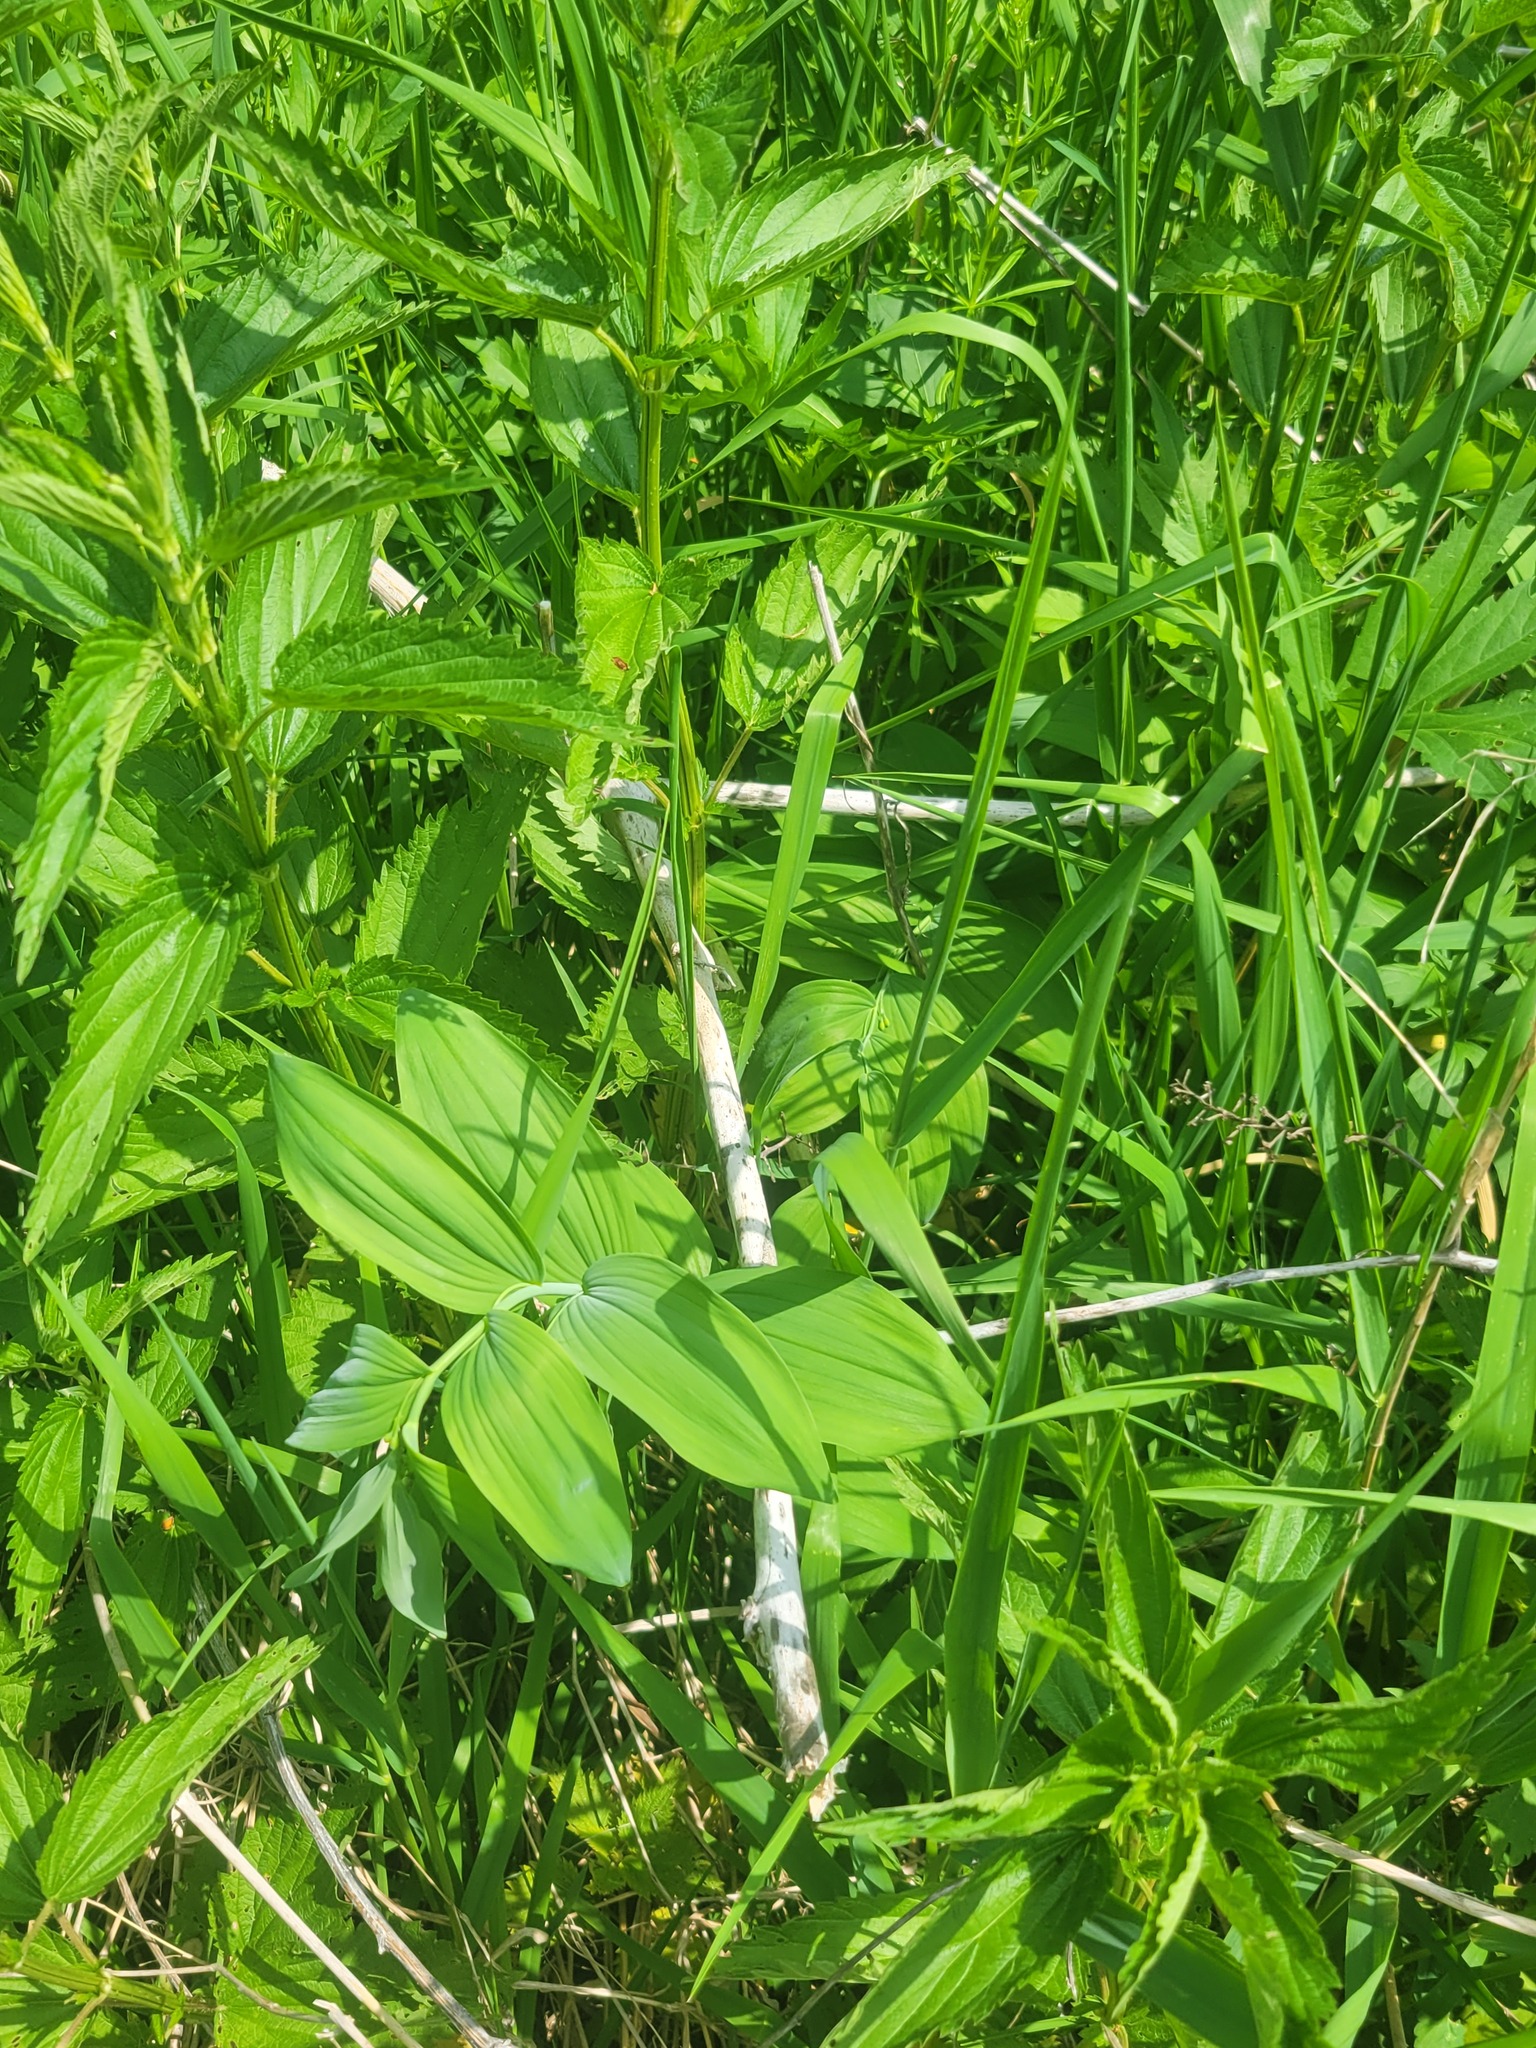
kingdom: Plantae
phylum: Tracheophyta
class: Liliopsida
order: Asparagales
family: Asparagaceae
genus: Polygonatum
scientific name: Polygonatum biflorum
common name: American solomon's-seal
